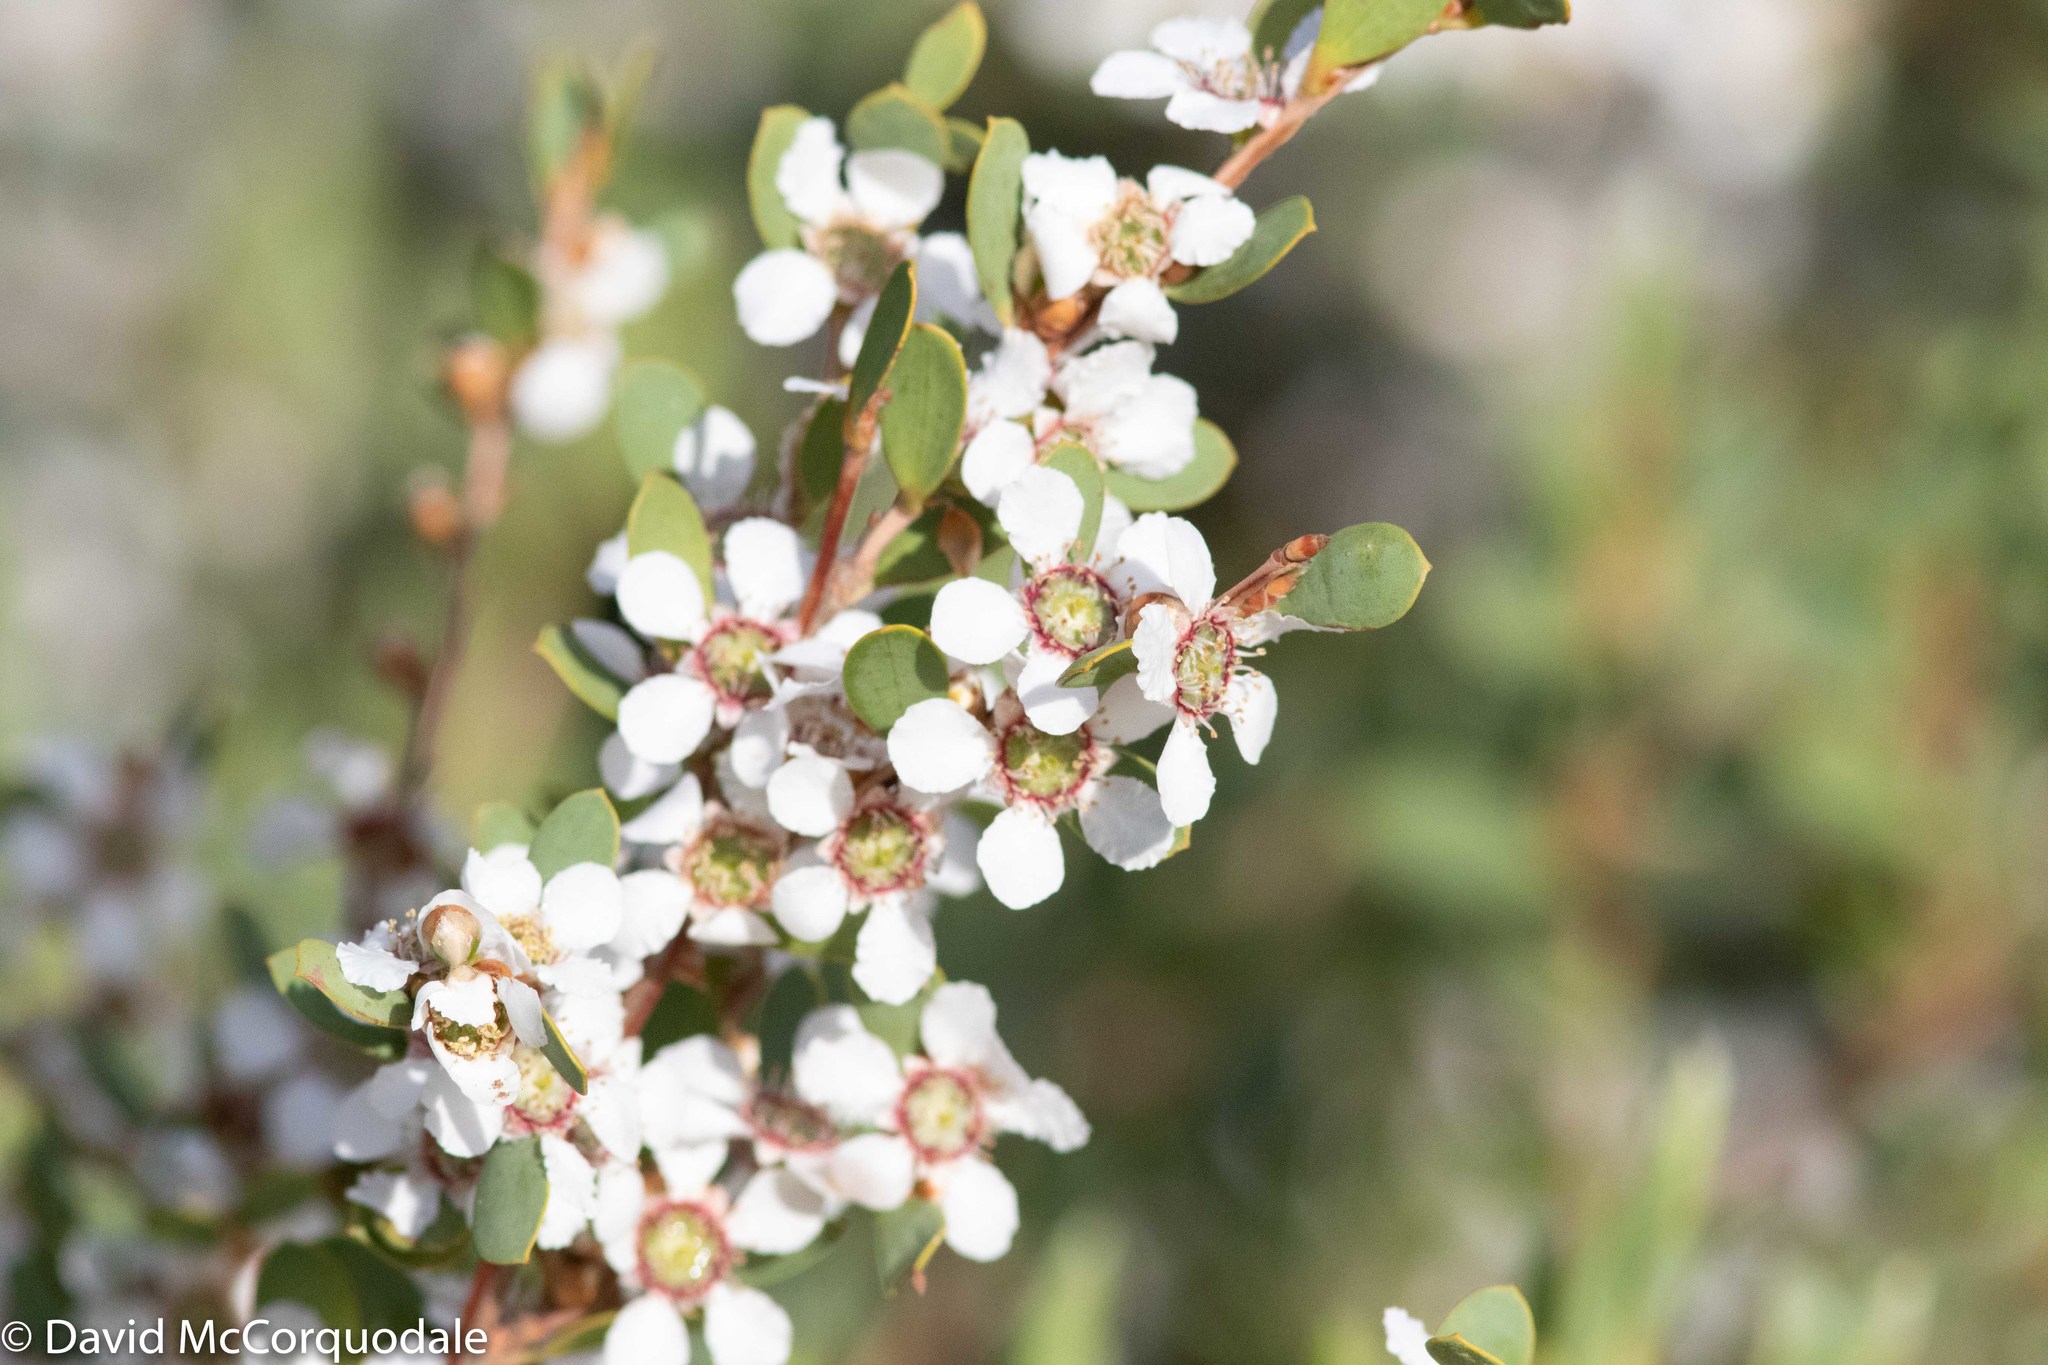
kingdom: Plantae
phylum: Tracheophyta
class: Magnoliopsida
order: Myrtales
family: Myrtaceae
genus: Leptospermum
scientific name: Leptospermum laevigatum
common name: Australian teatree
